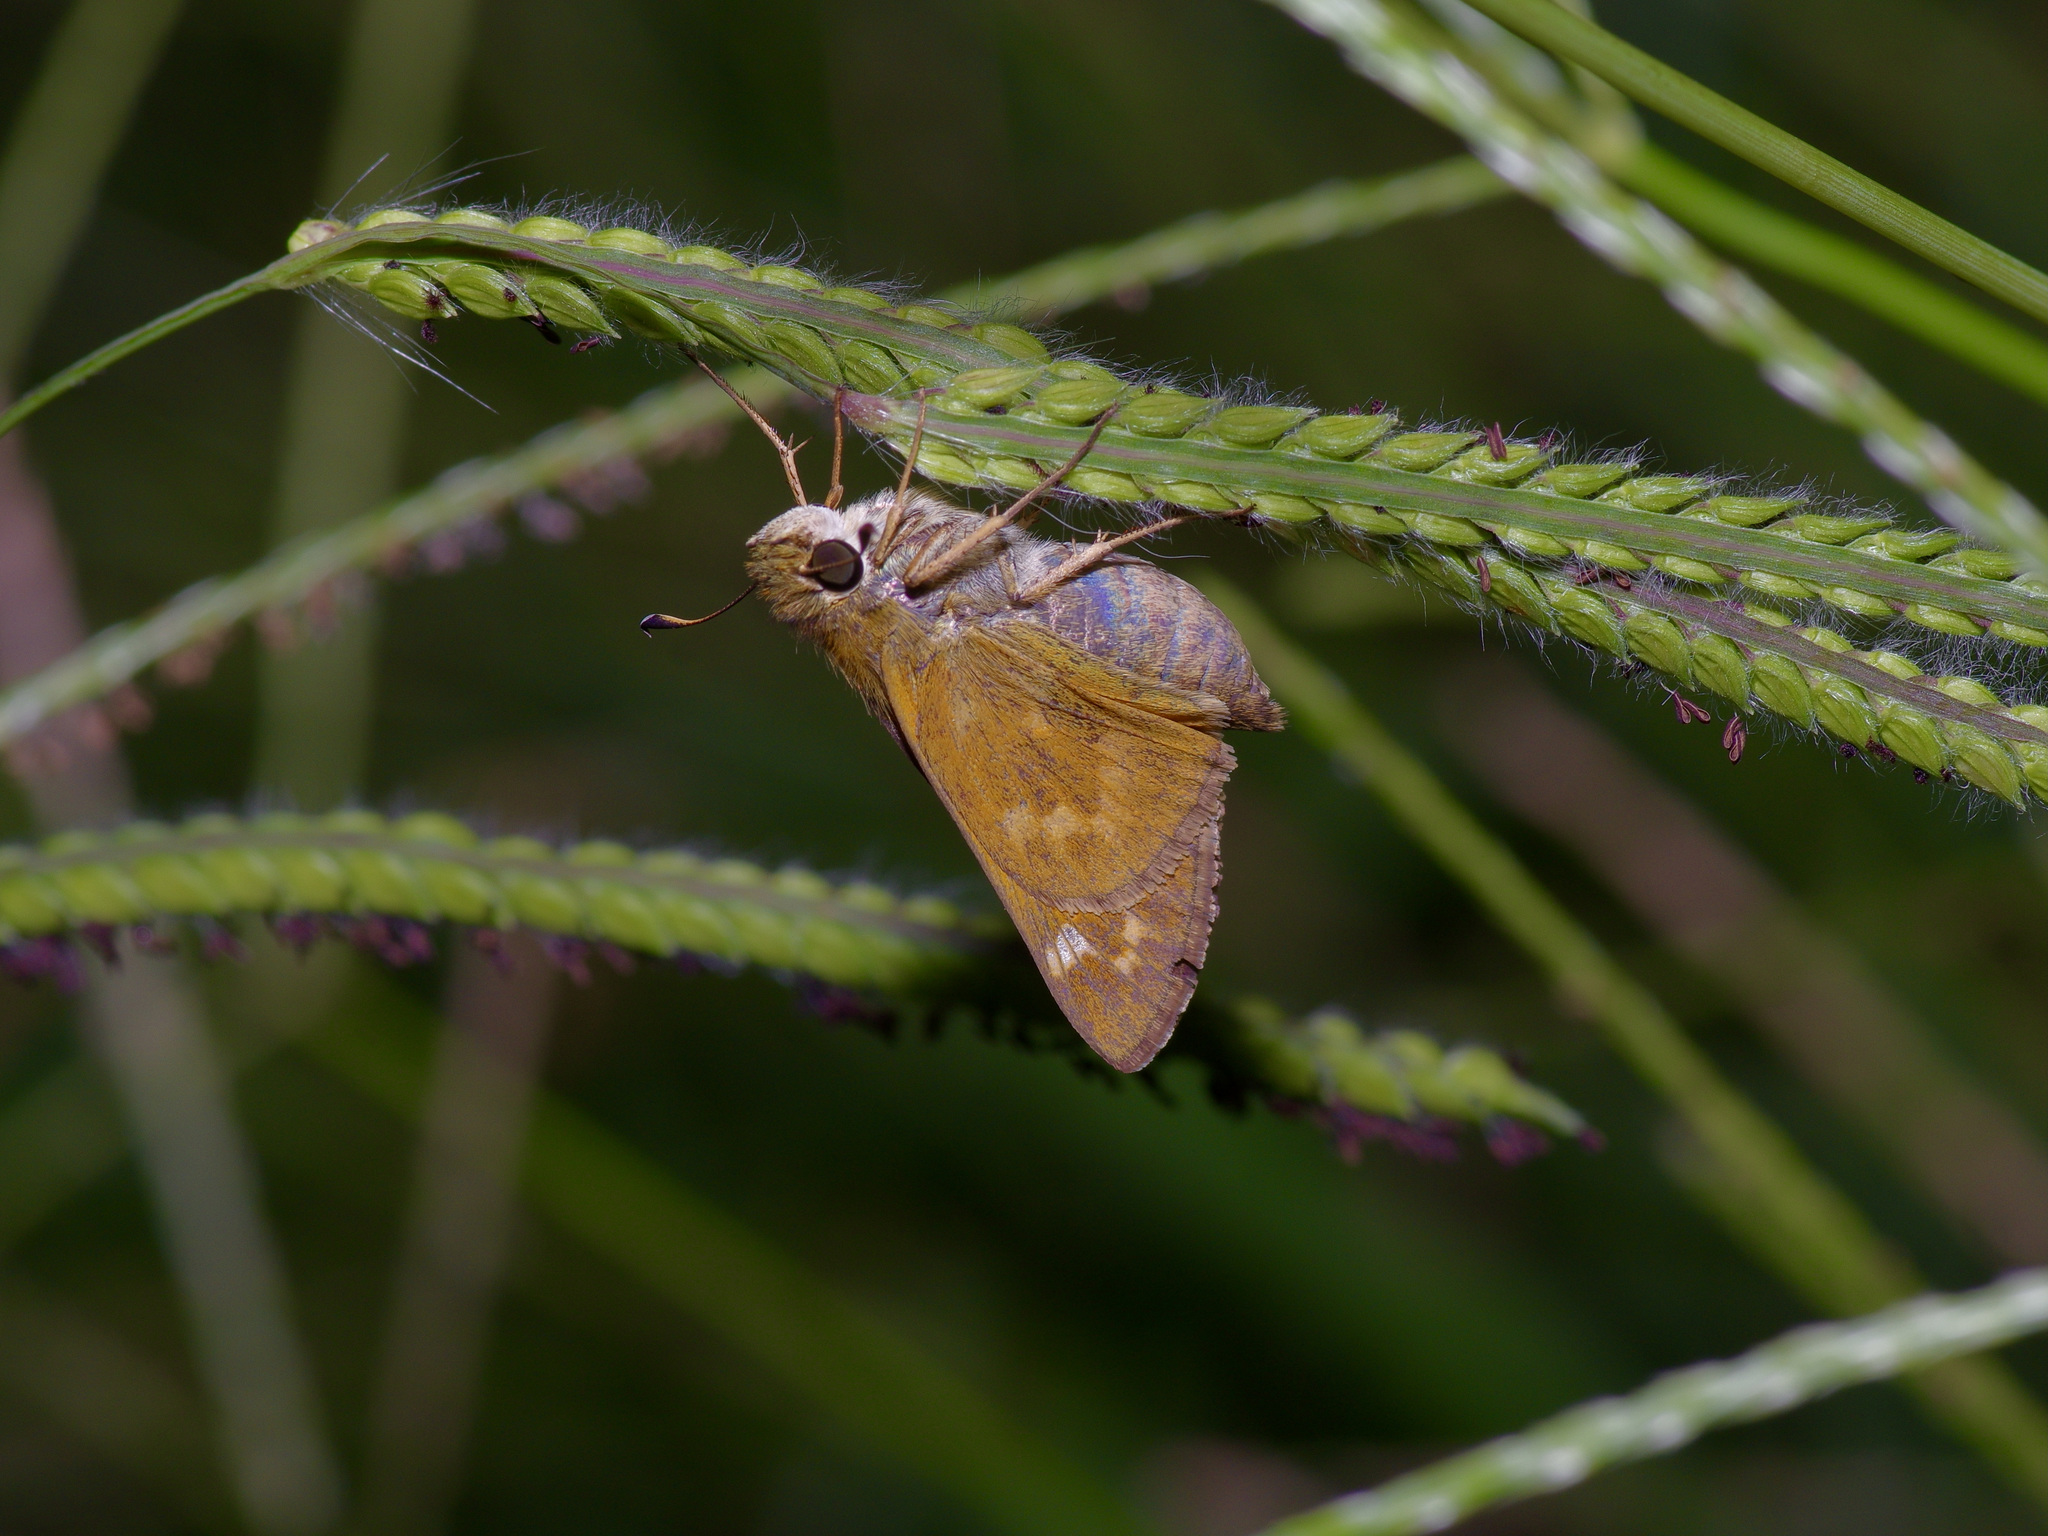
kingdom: Animalia
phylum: Arthropoda
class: Insecta
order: Lepidoptera
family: Hesperiidae
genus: Atalopedes
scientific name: Atalopedes
